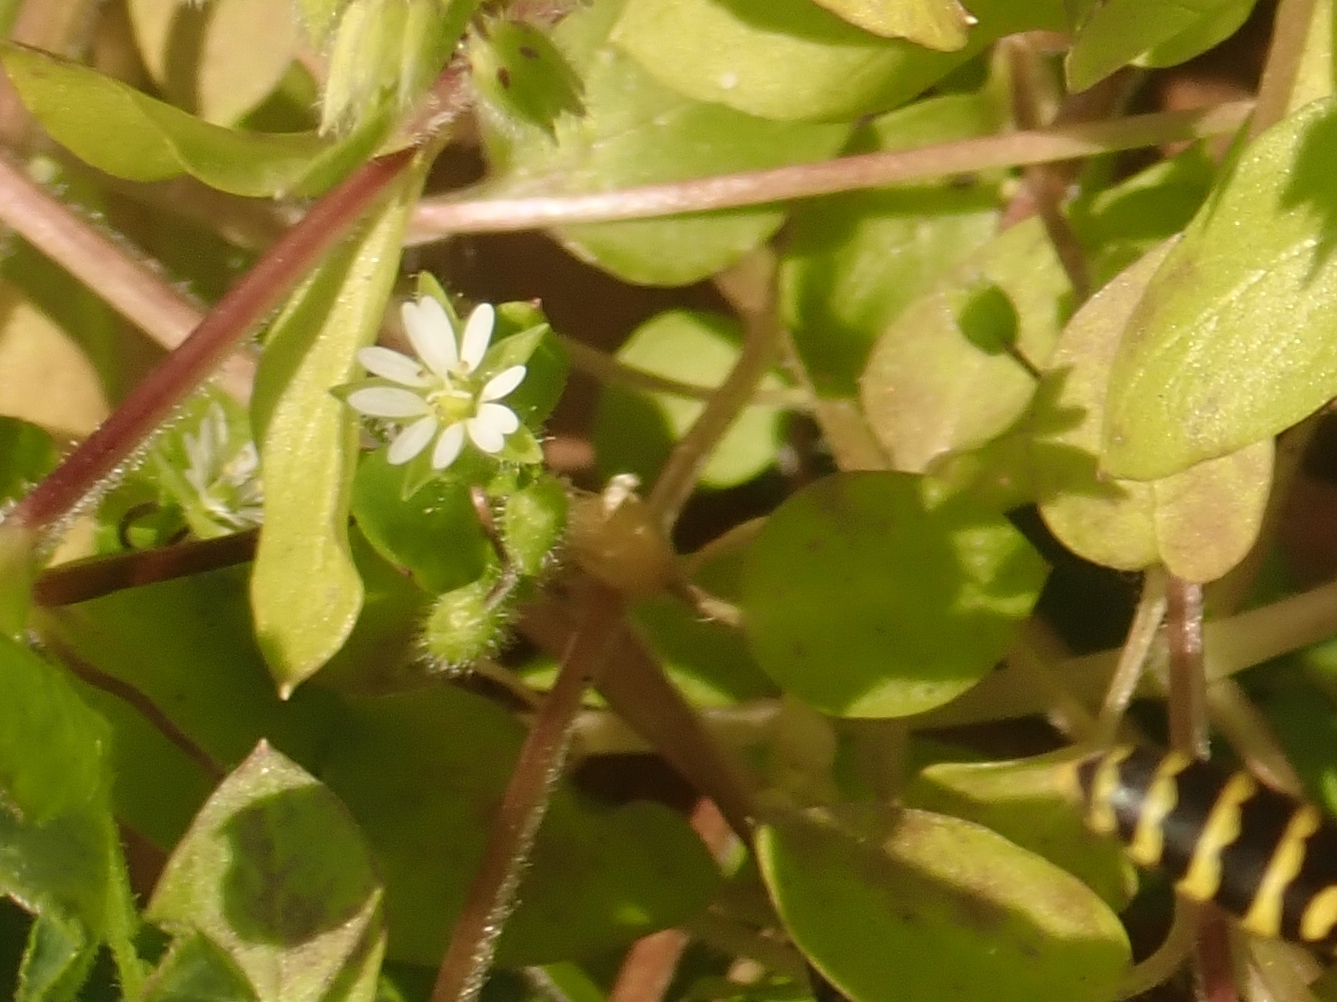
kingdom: Plantae
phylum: Tracheophyta
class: Magnoliopsida
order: Caryophyllales
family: Caryophyllaceae
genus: Stellaria
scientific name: Stellaria media
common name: Common chickweed
